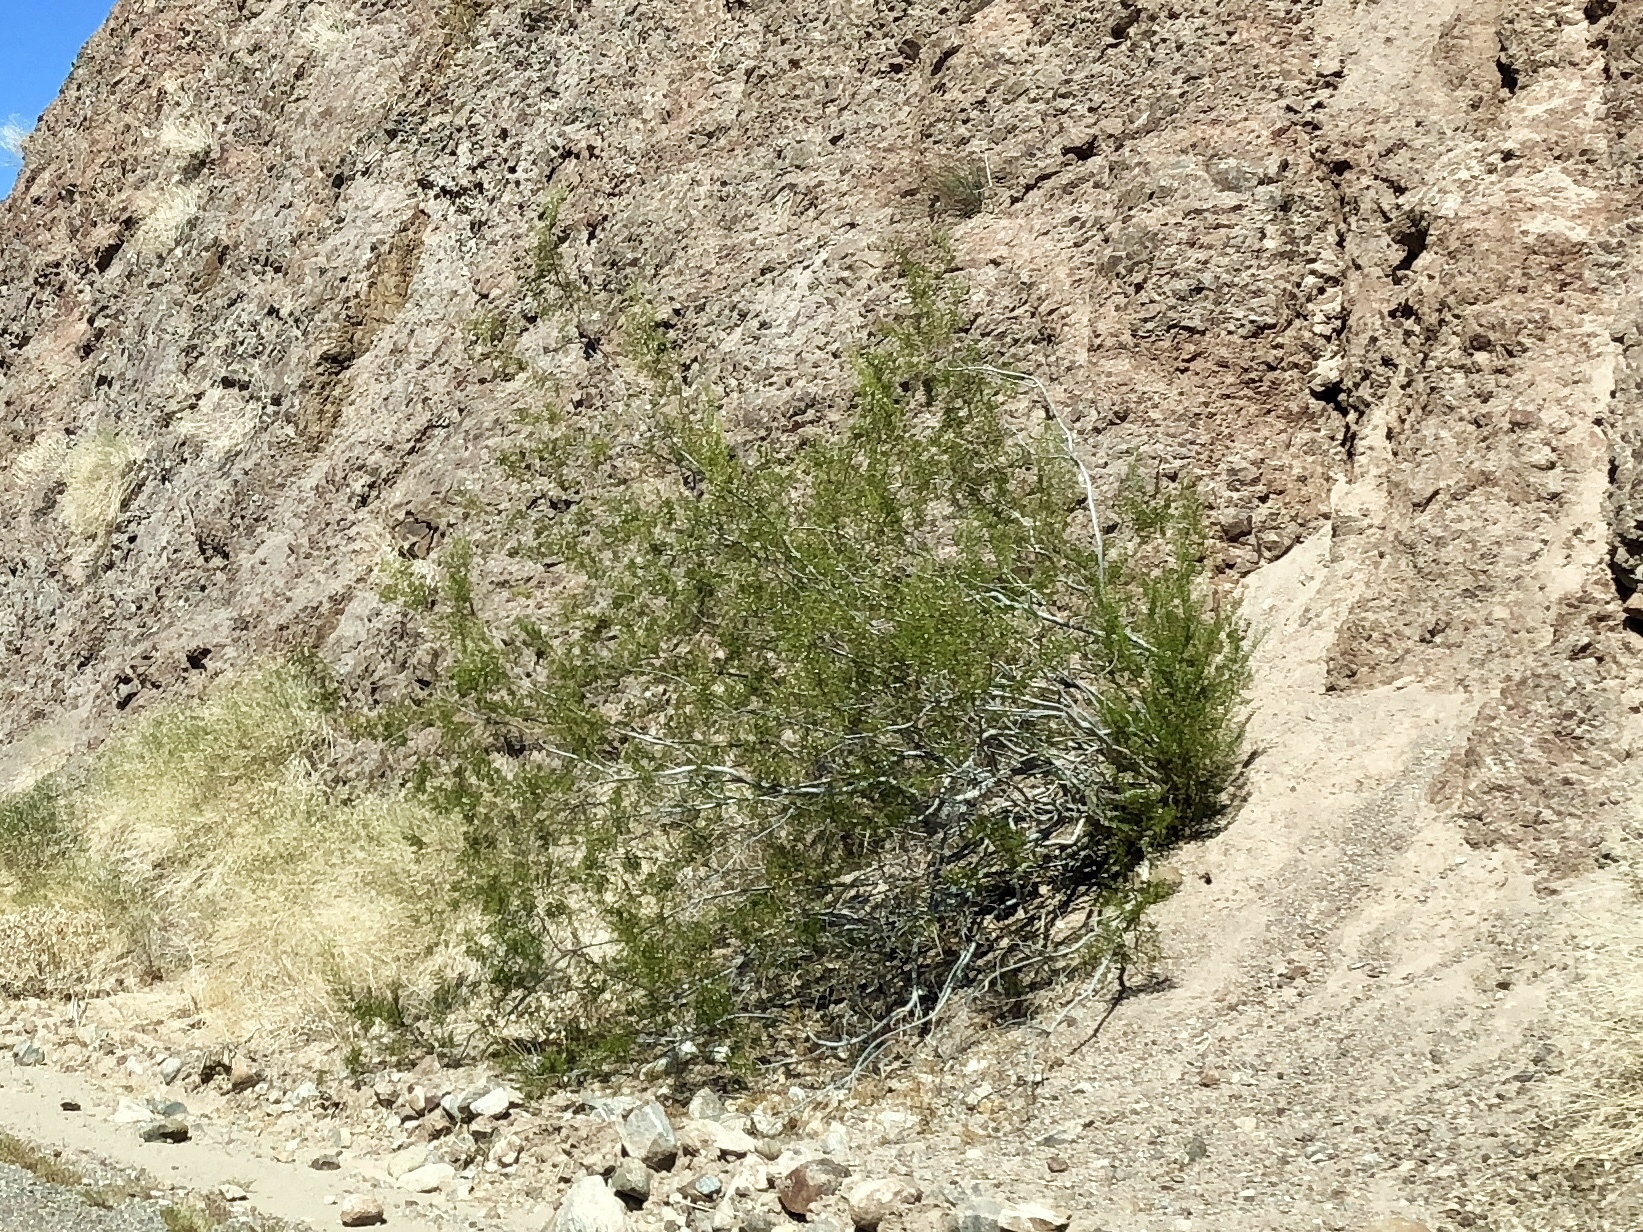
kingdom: Plantae
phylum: Tracheophyta
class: Magnoliopsida
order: Zygophyllales
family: Zygophyllaceae
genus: Larrea
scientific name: Larrea tridentata
